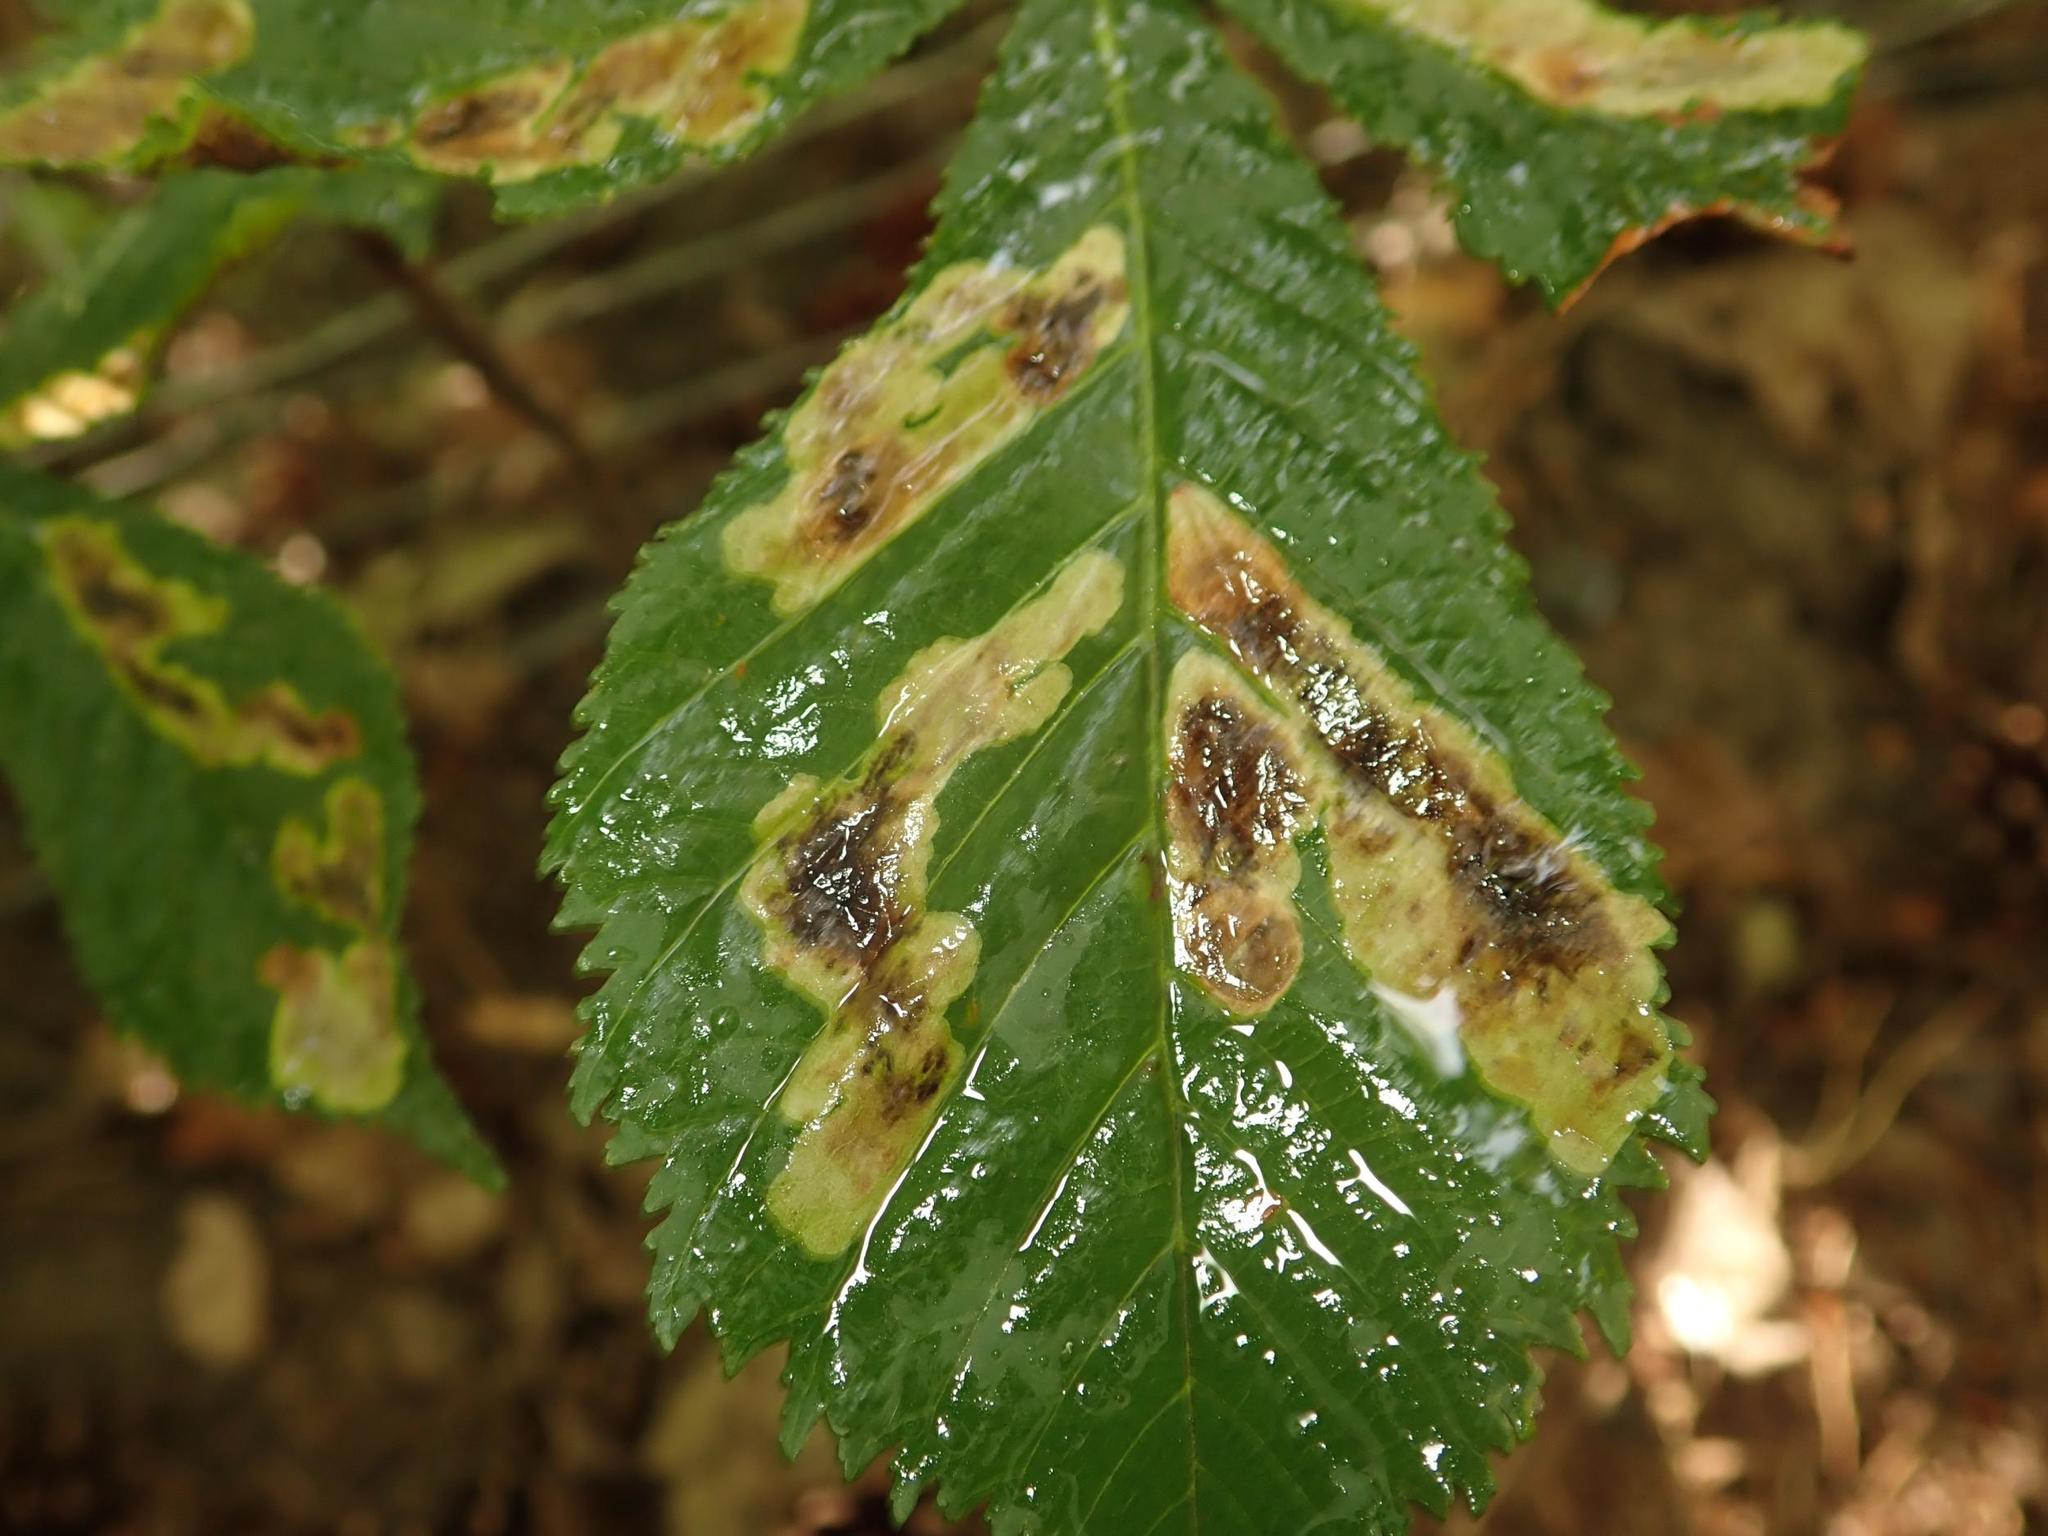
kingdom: Animalia
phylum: Arthropoda
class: Insecta
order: Lepidoptera
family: Gracillariidae
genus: Cameraria
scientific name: Cameraria ohridella
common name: Horse-chestnut leaf-miner
